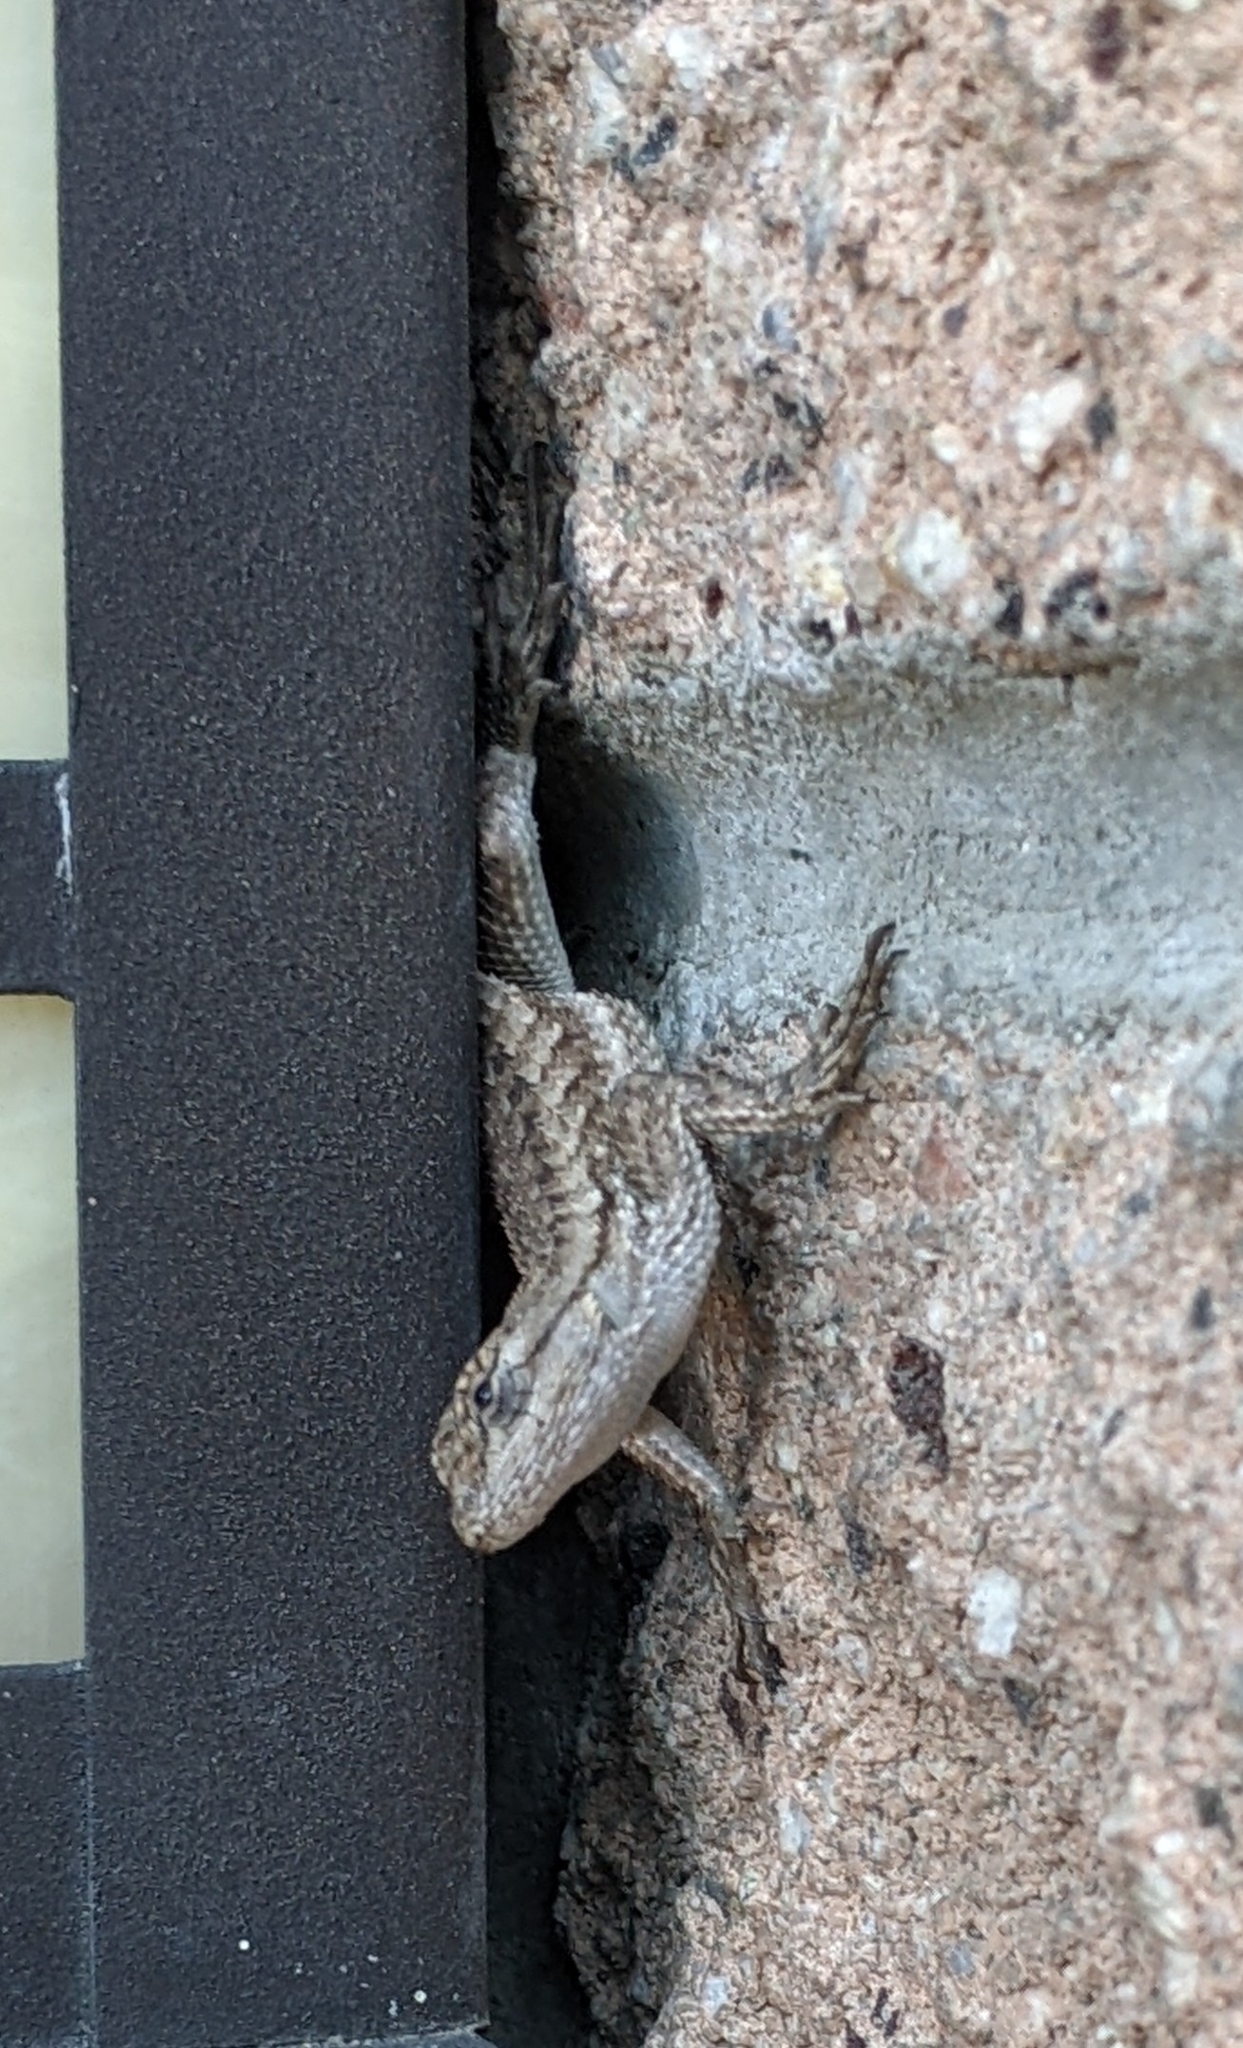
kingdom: Animalia
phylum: Chordata
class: Squamata
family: Phrynosomatidae
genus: Sceloporus
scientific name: Sceloporus occidentalis
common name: Western fence lizard
